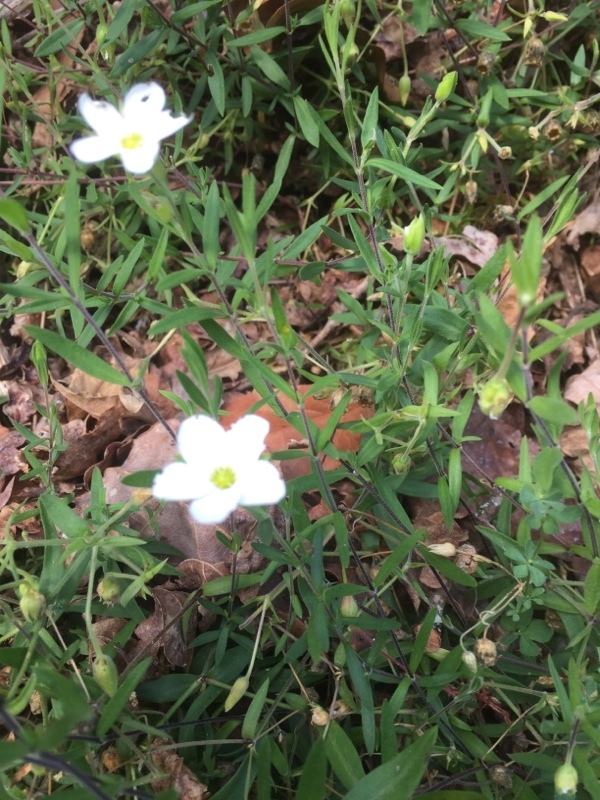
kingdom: Plantae
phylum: Tracheophyta
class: Magnoliopsida
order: Caryophyllales
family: Caryophyllaceae
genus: Arenaria
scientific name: Arenaria montana
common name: Mountain sandwort
